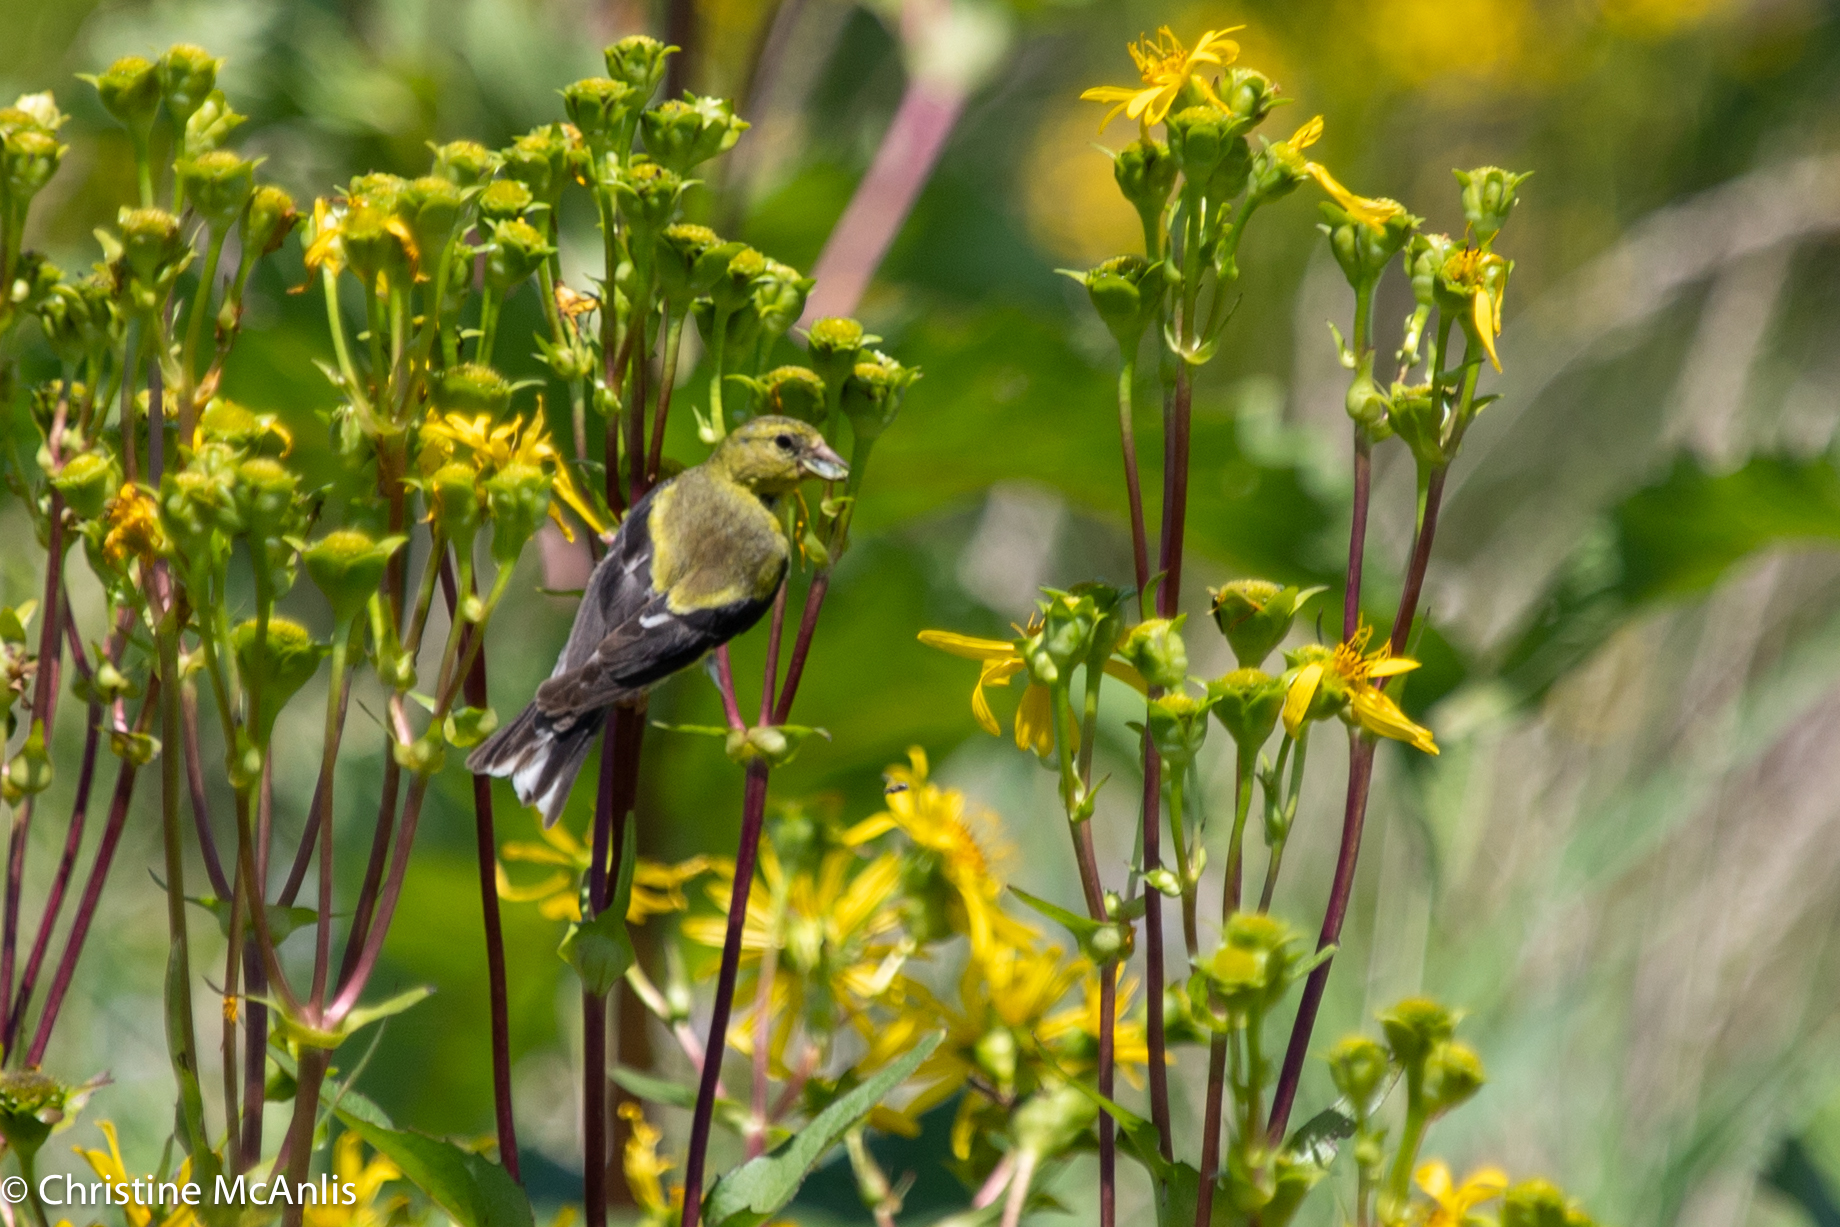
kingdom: Animalia
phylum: Chordata
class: Aves
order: Passeriformes
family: Fringillidae
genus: Spinus
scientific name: Spinus tristis
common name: American goldfinch
